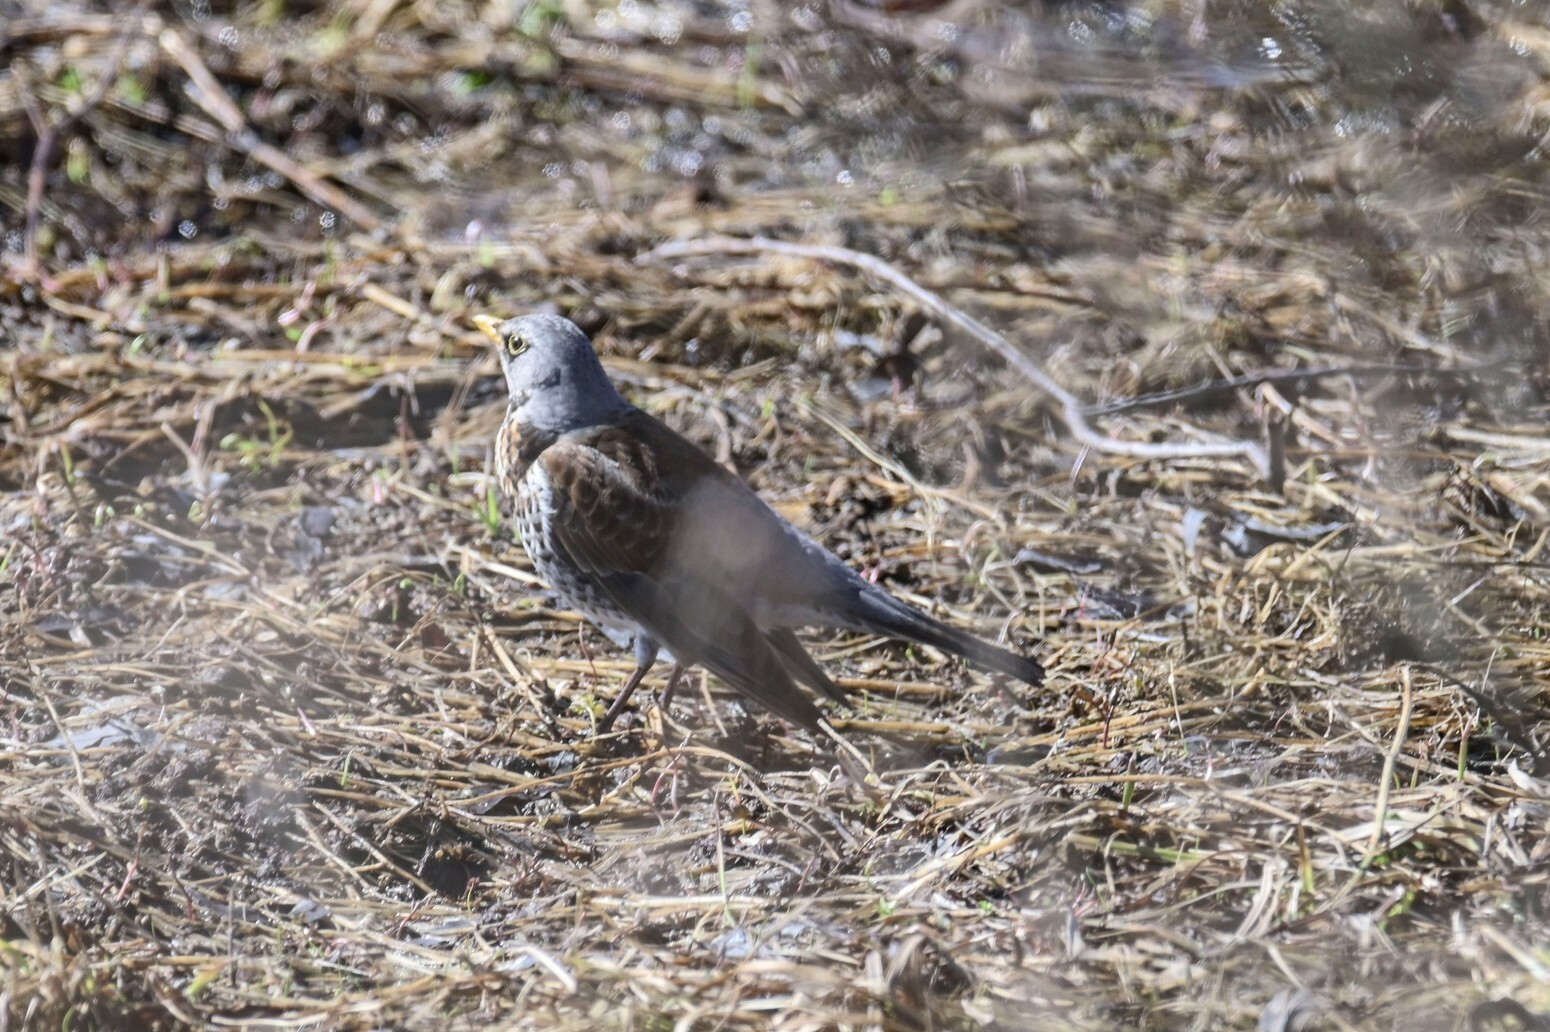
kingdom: Animalia
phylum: Chordata
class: Aves
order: Passeriformes
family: Turdidae
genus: Turdus
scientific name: Turdus pilaris
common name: Fieldfare
